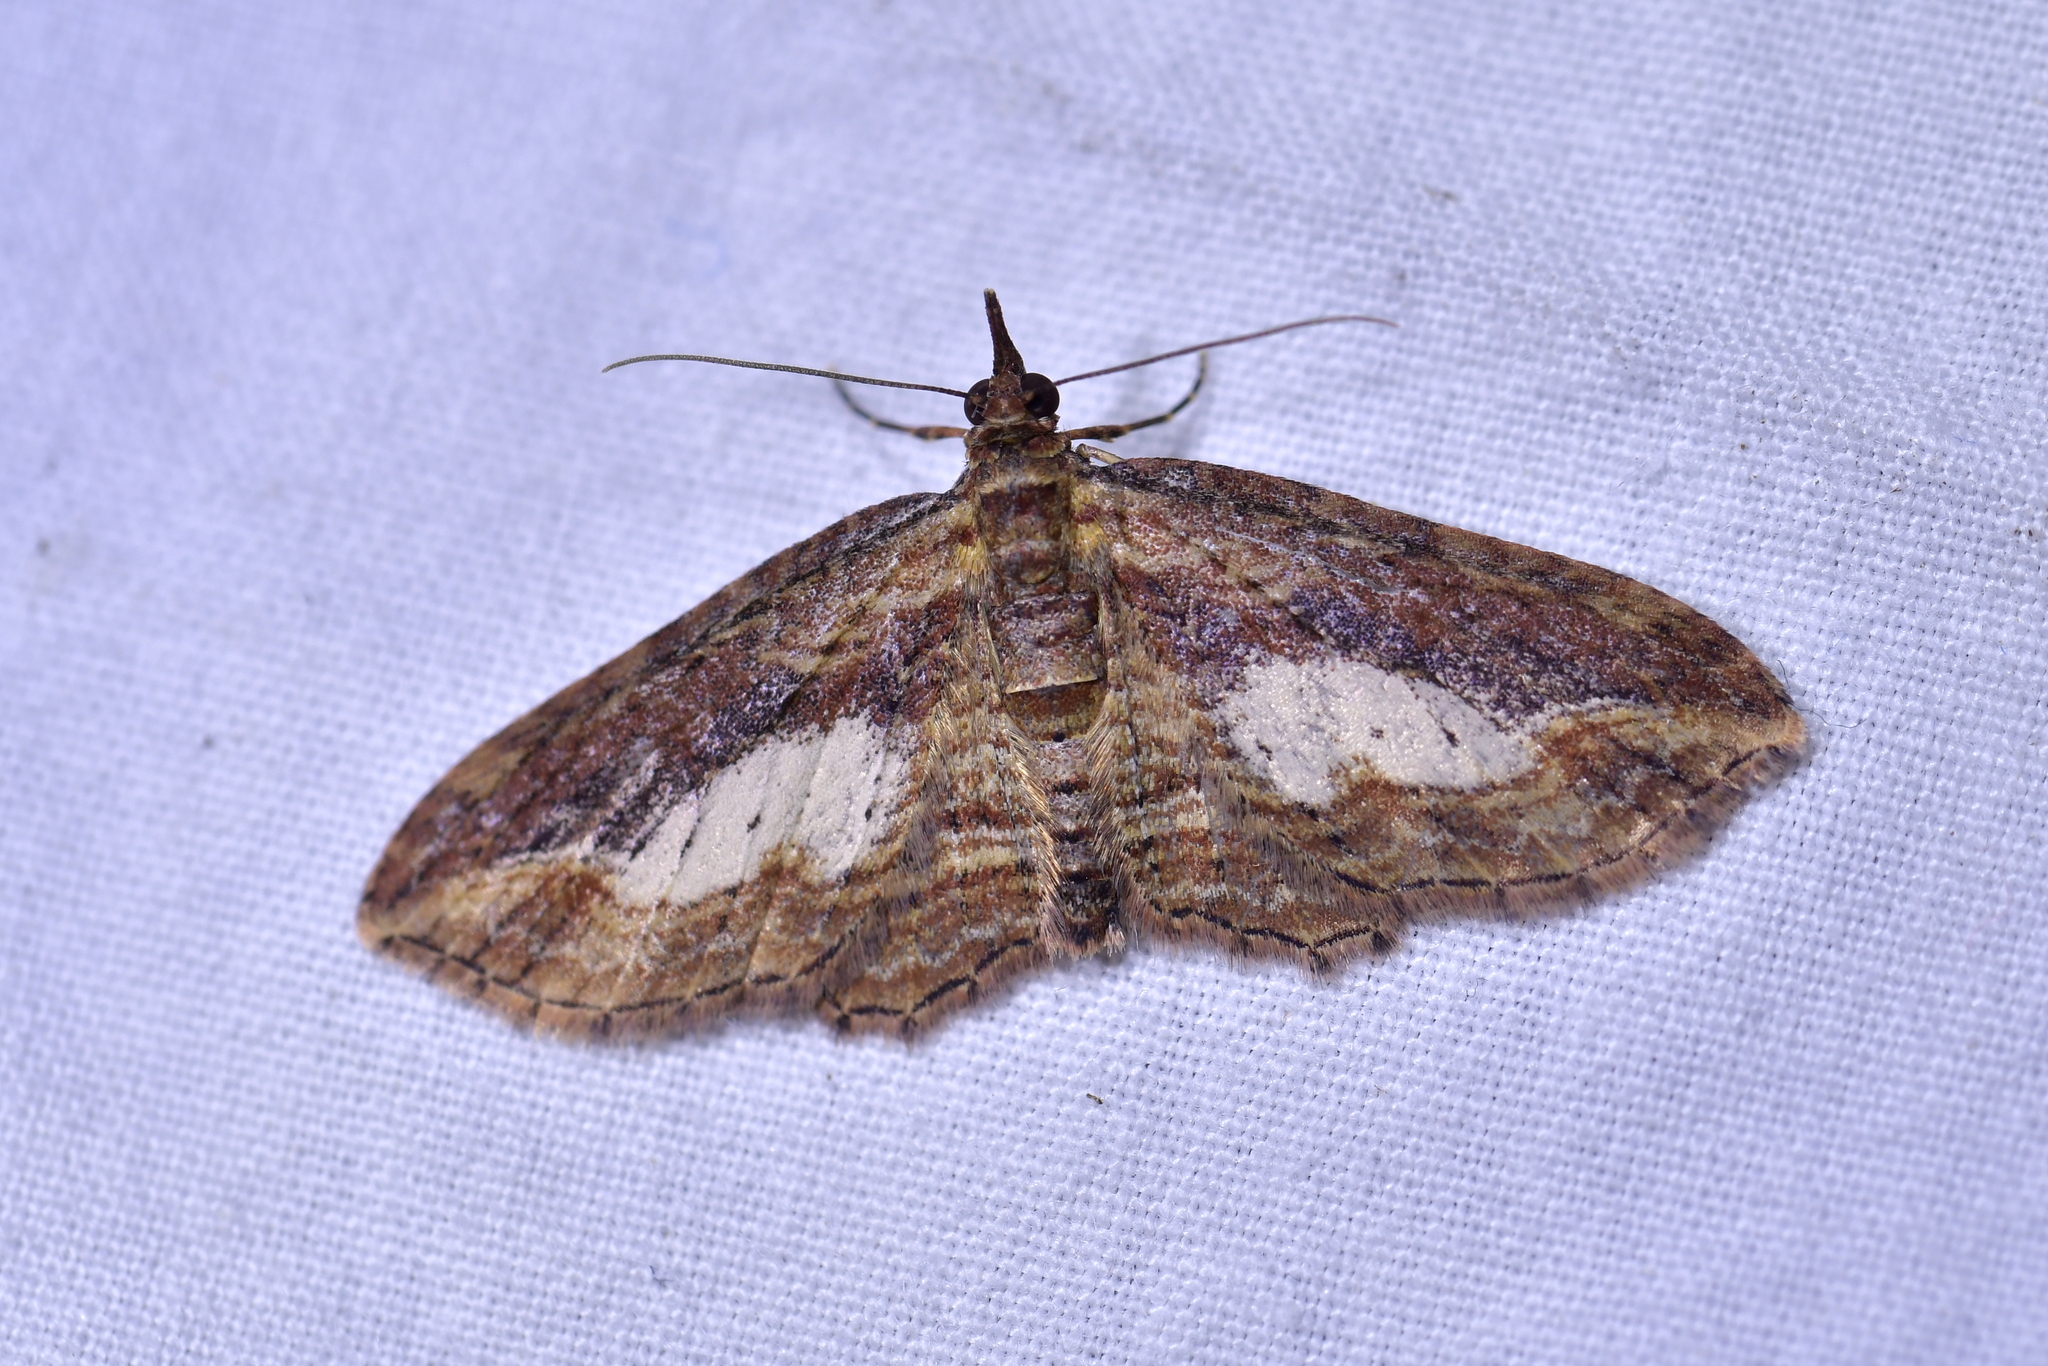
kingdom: Animalia
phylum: Arthropoda
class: Insecta
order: Lepidoptera
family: Geometridae
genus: Chloroclystis
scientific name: Chloroclystis filata
